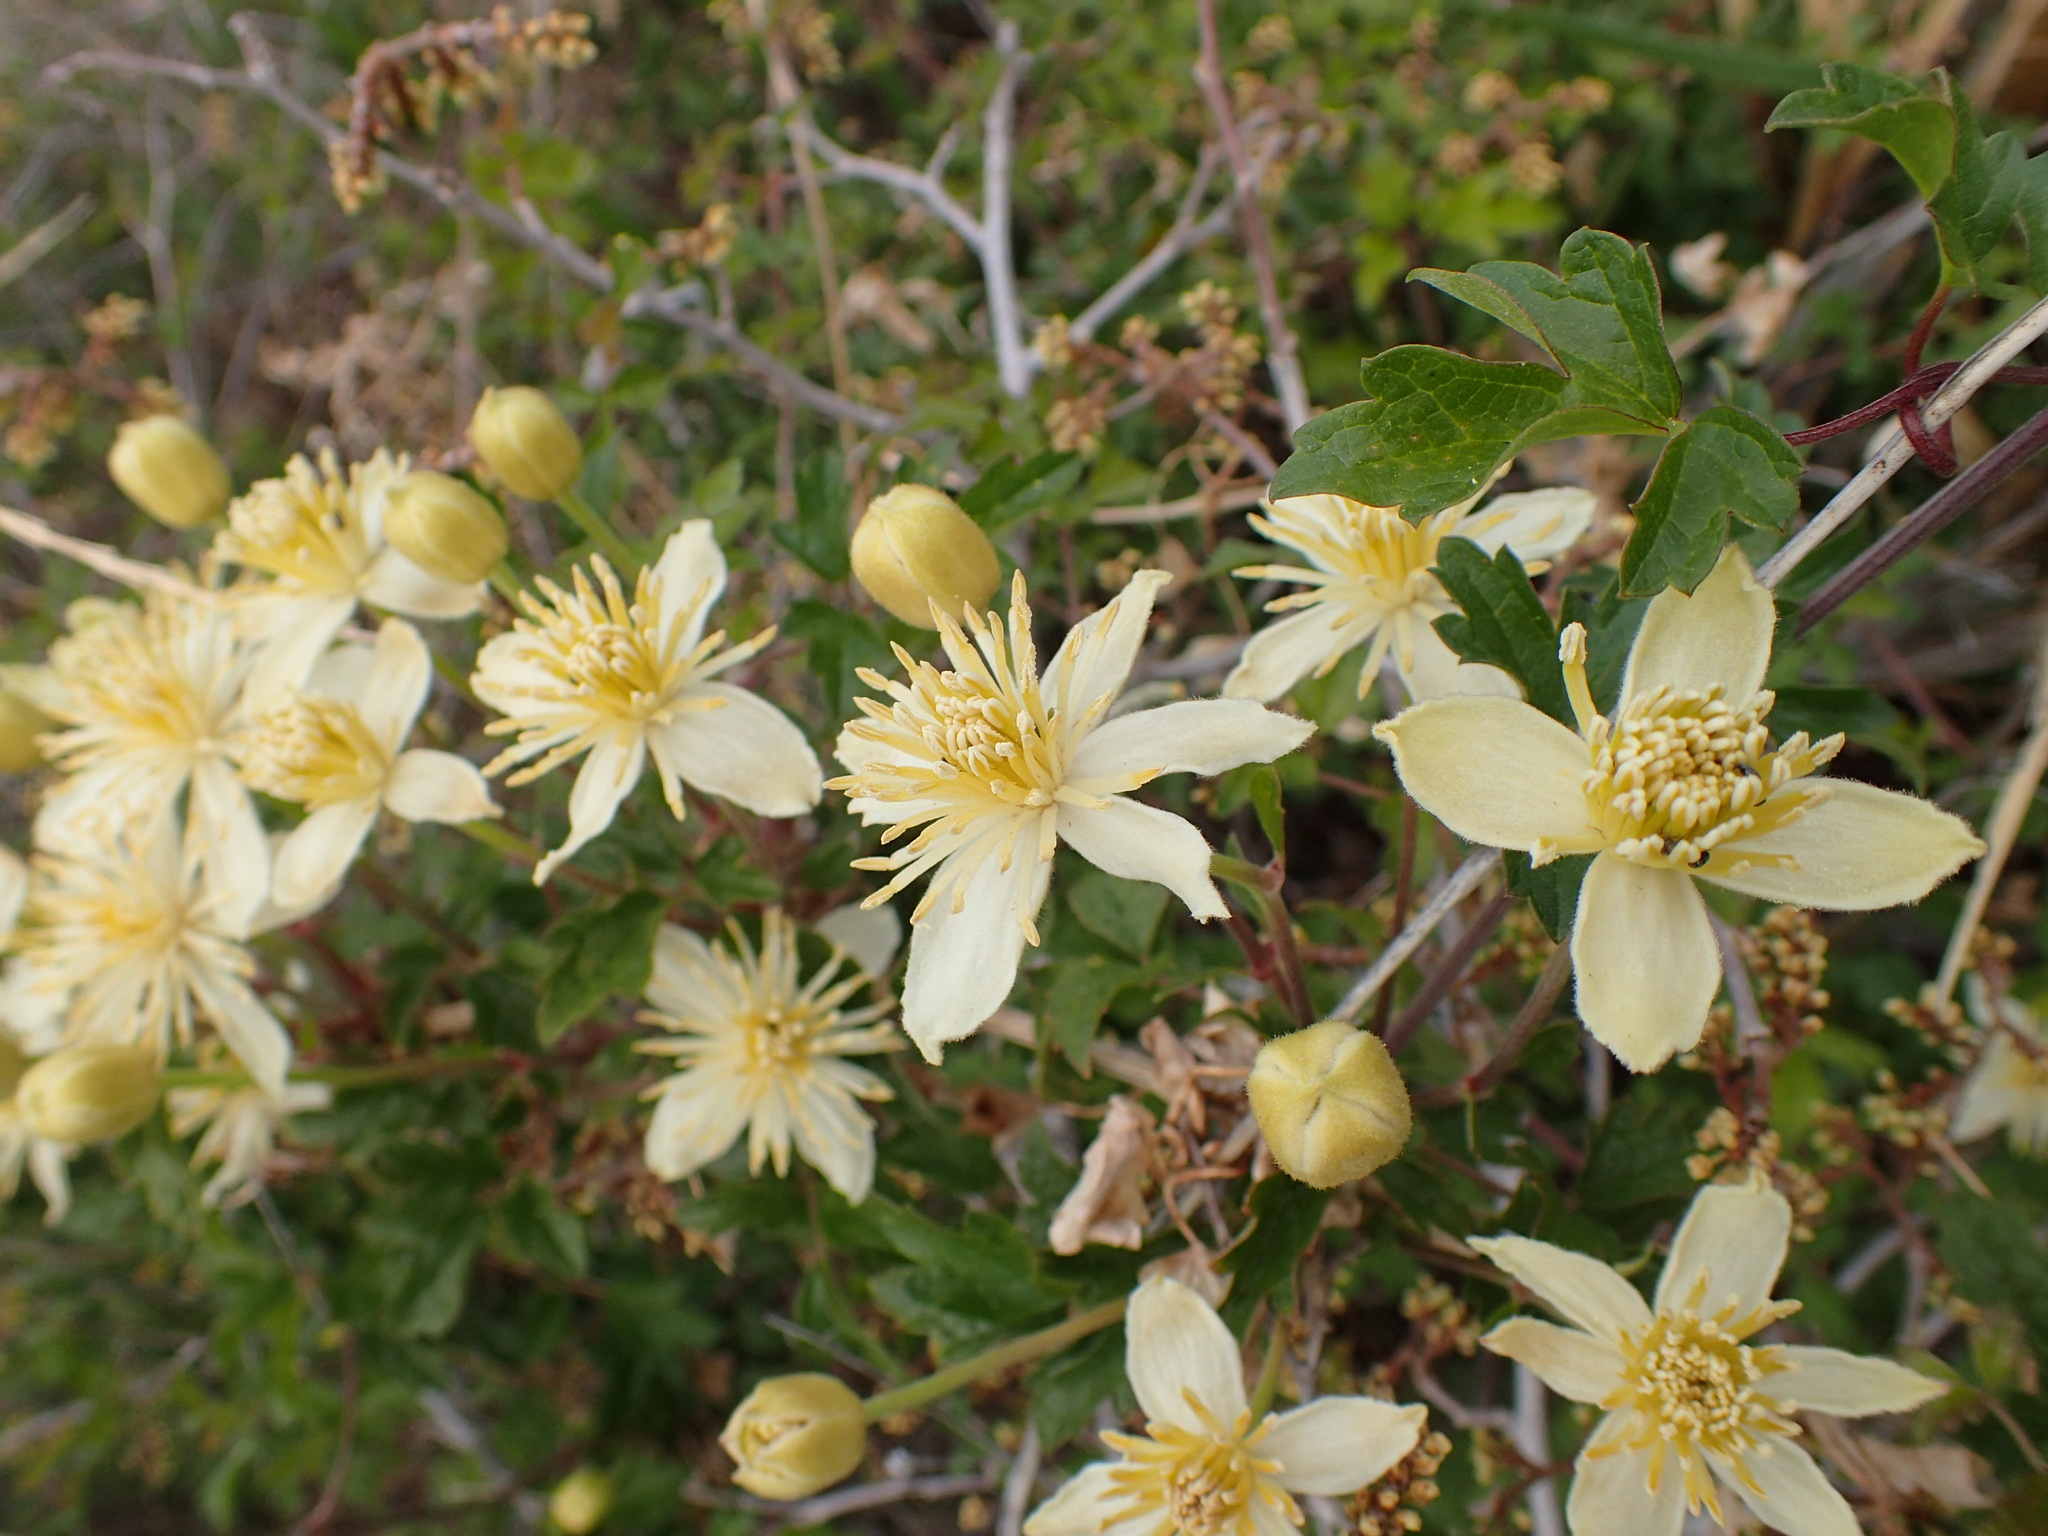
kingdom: Plantae
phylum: Tracheophyta
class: Magnoliopsida
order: Ranunculales
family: Ranunculaceae
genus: Clematis
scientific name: Clematis lasiantha
